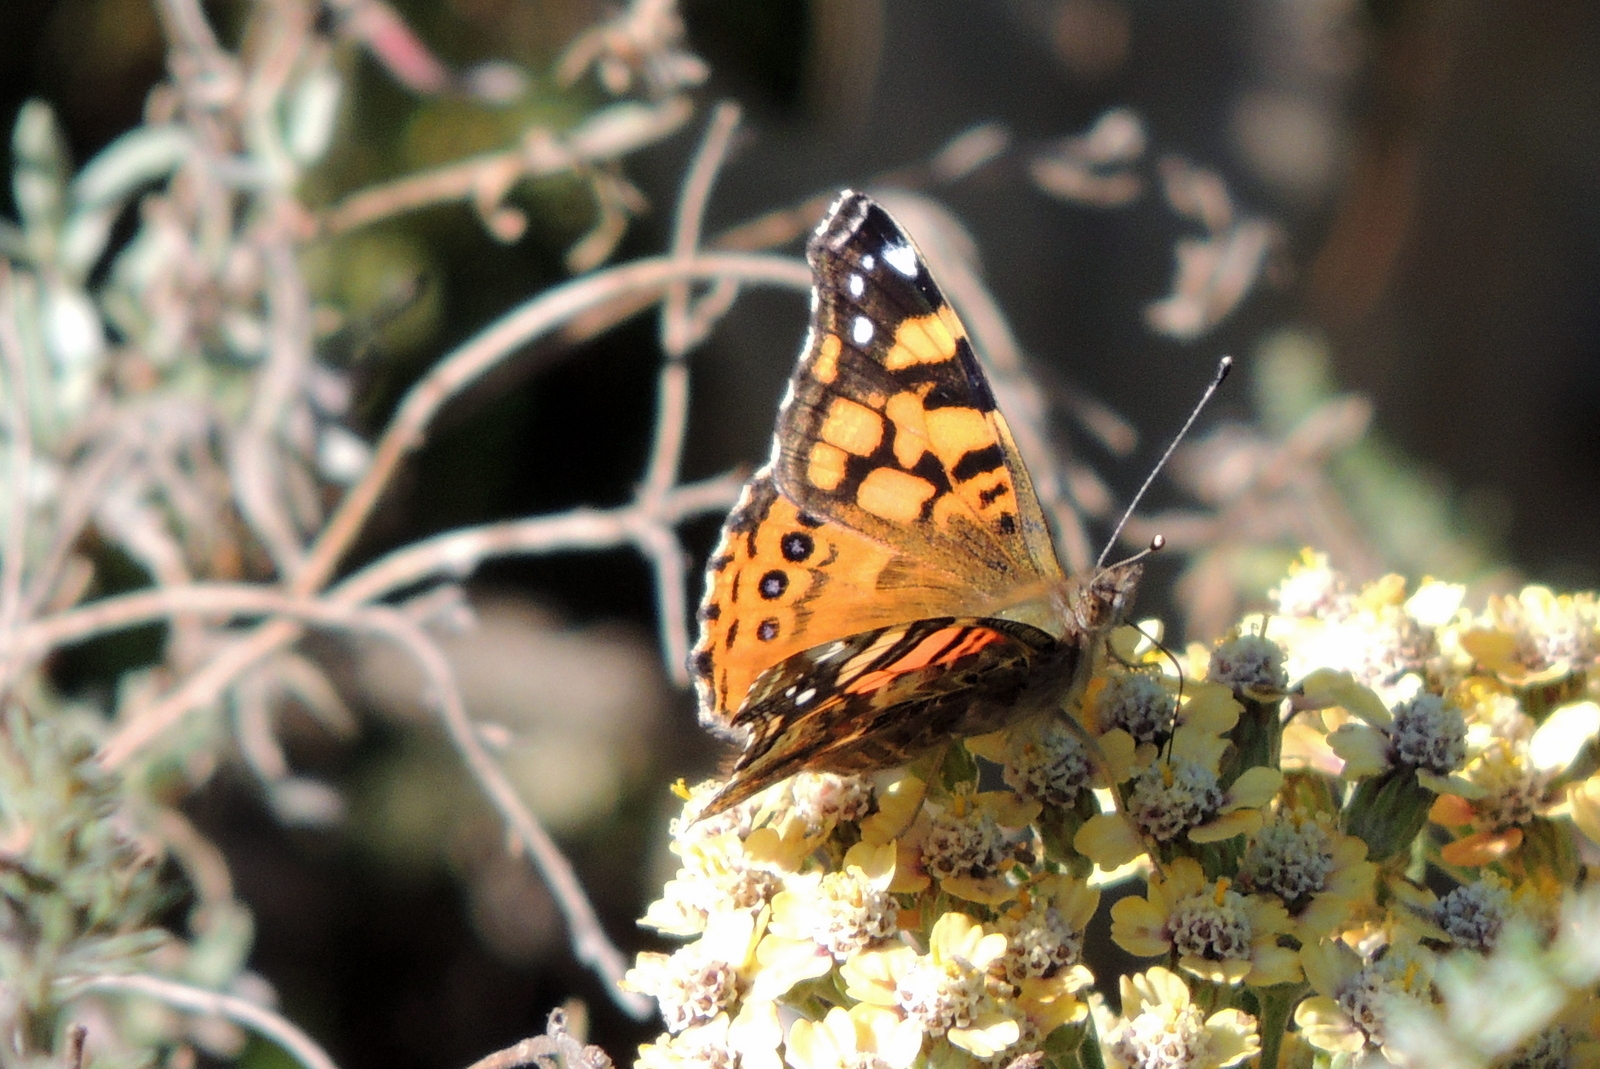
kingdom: Animalia
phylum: Arthropoda
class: Insecta
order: Lepidoptera
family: Nymphalidae
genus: Vanessa
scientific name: Vanessa annabella
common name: West coast lady
